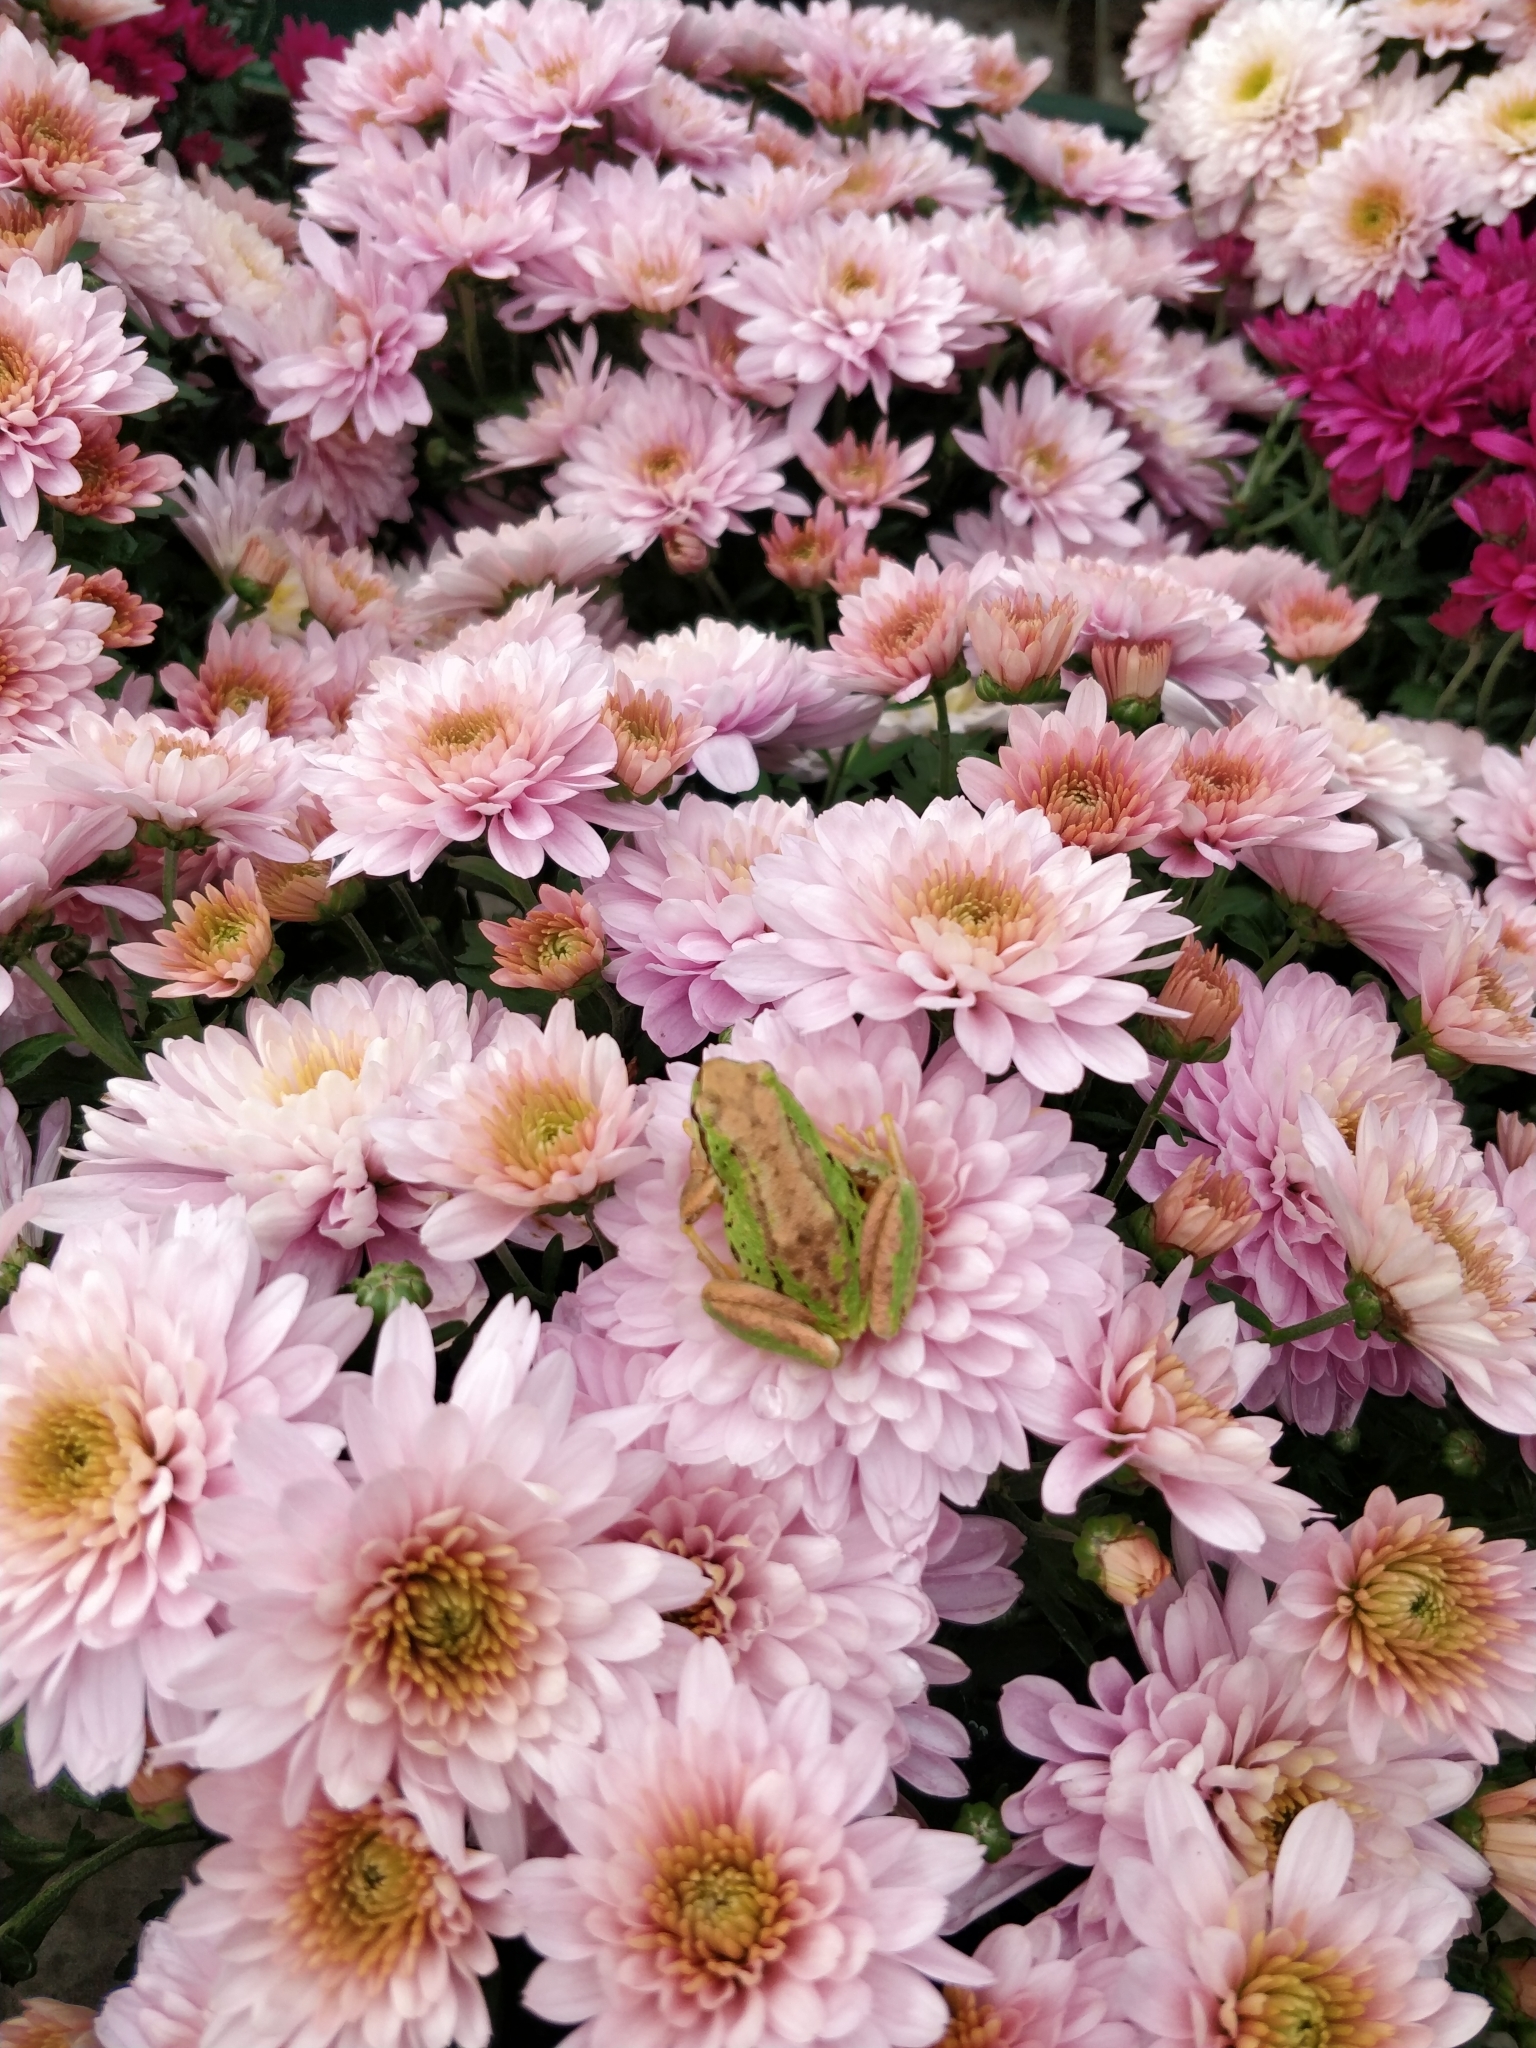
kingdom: Animalia
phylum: Chordata
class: Amphibia
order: Anura
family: Hylidae
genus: Pseudacris
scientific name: Pseudacris regilla
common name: Pacific chorus frog
